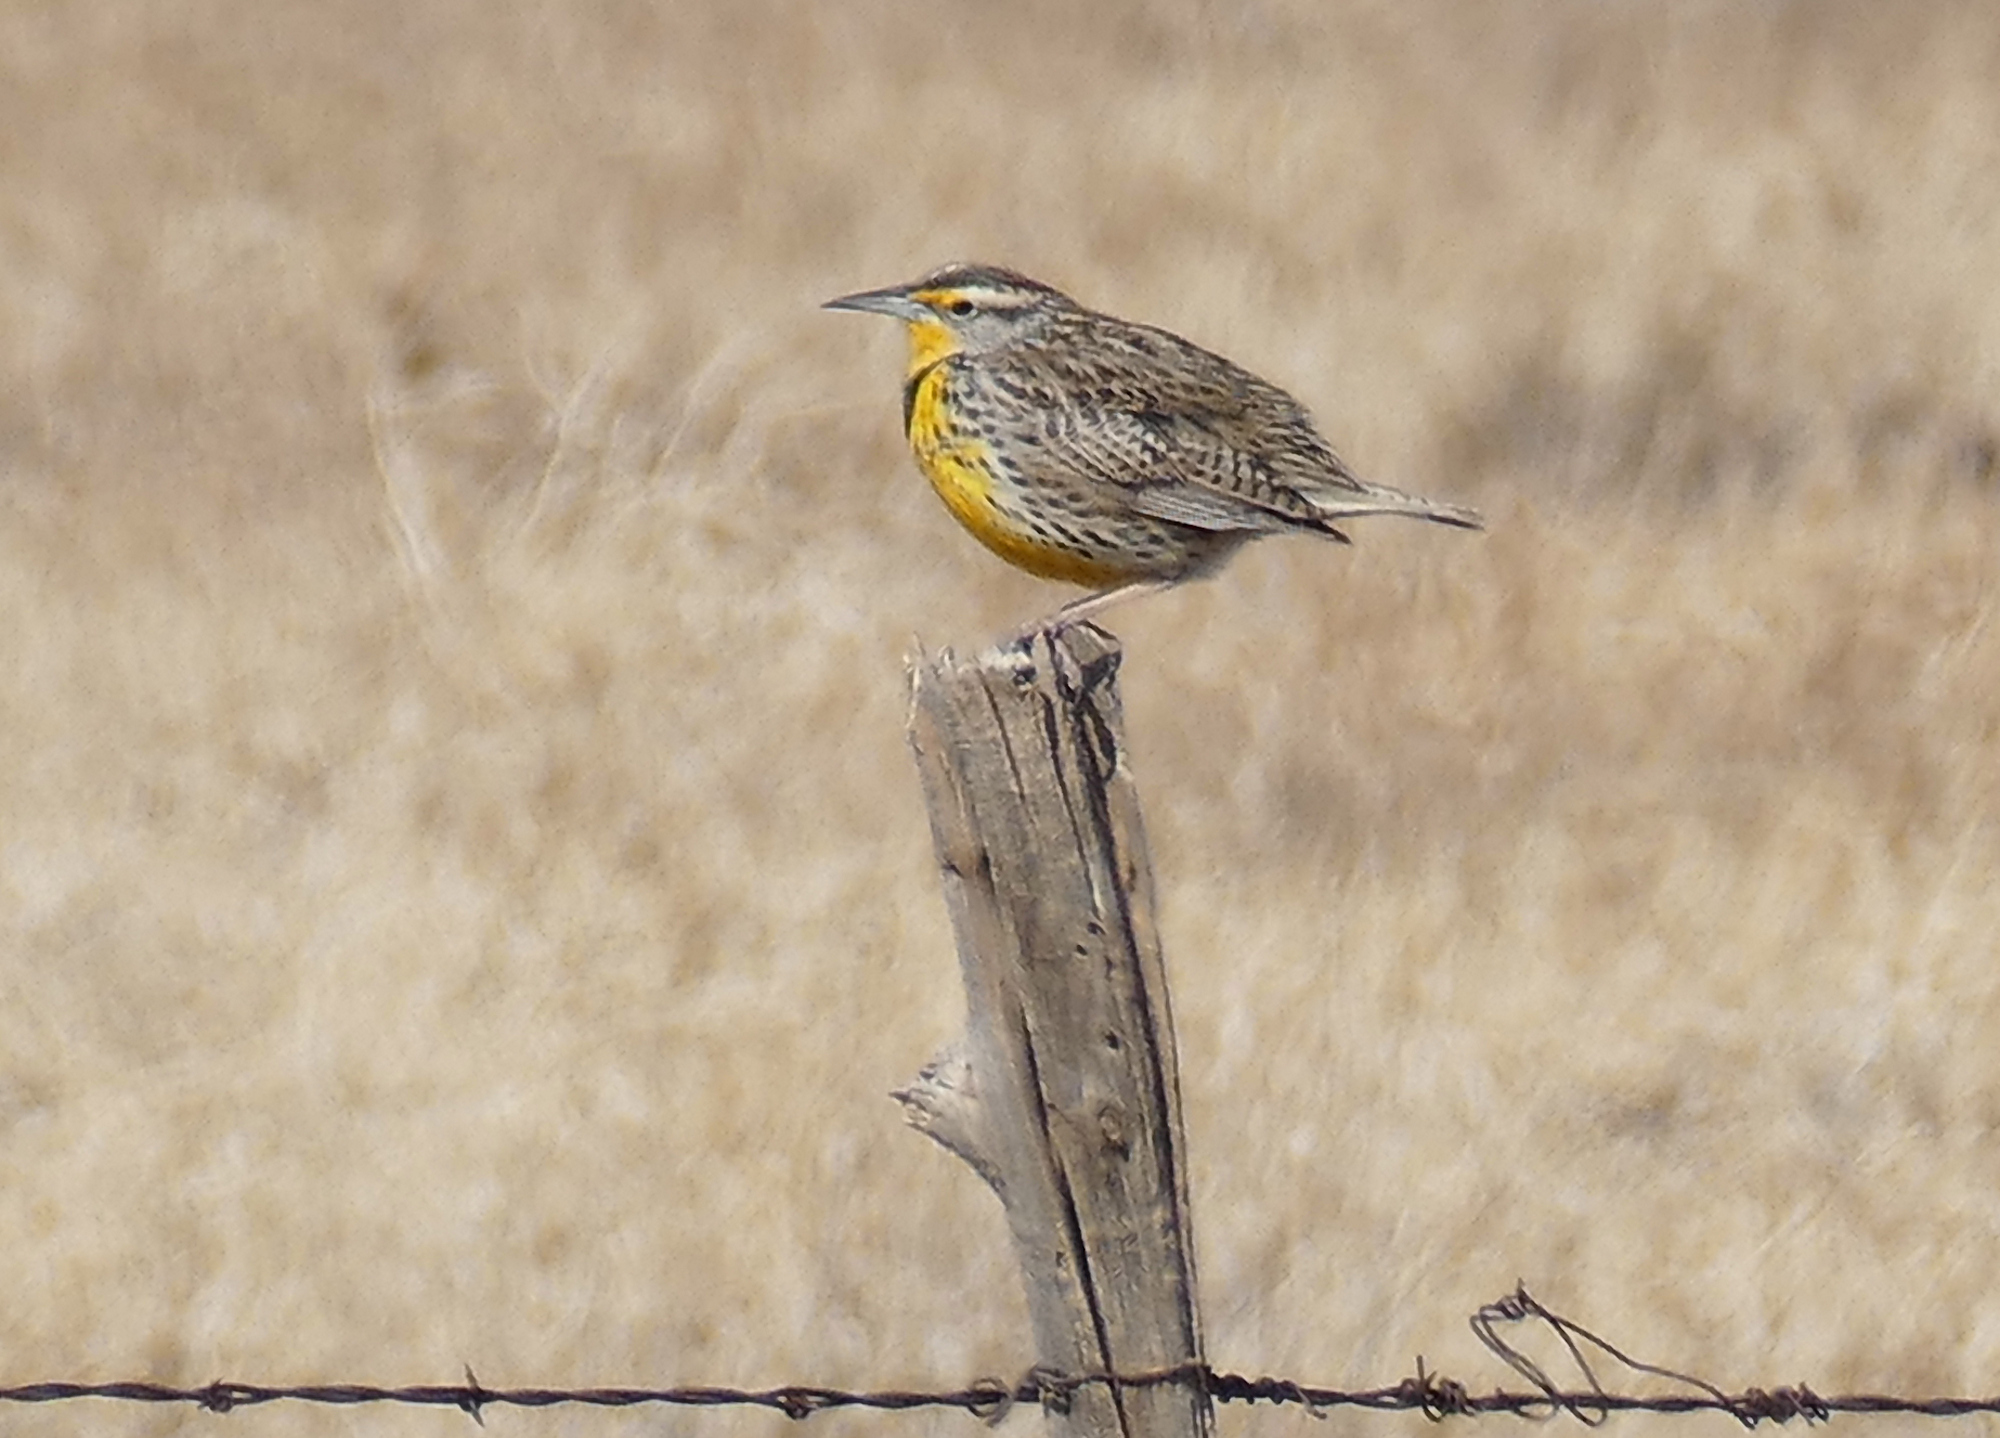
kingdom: Animalia
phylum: Chordata
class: Aves
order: Passeriformes
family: Icteridae
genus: Sturnella
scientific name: Sturnella neglecta
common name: Western meadowlark
